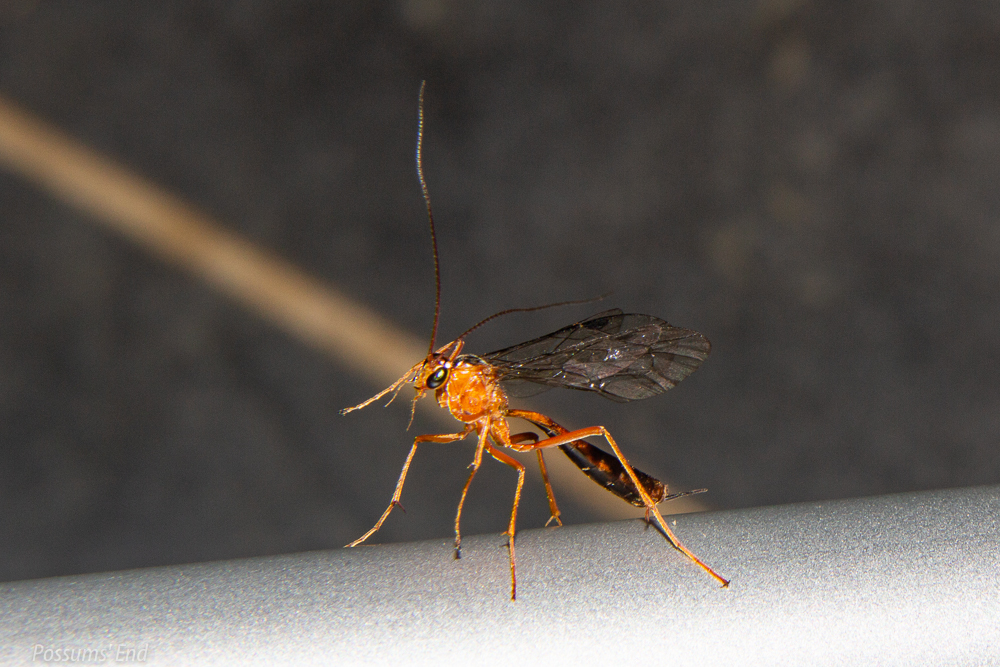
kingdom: Animalia
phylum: Arthropoda
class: Insecta
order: Hymenoptera
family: Ichneumonidae
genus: Netelia
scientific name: Netelia ephippiata
